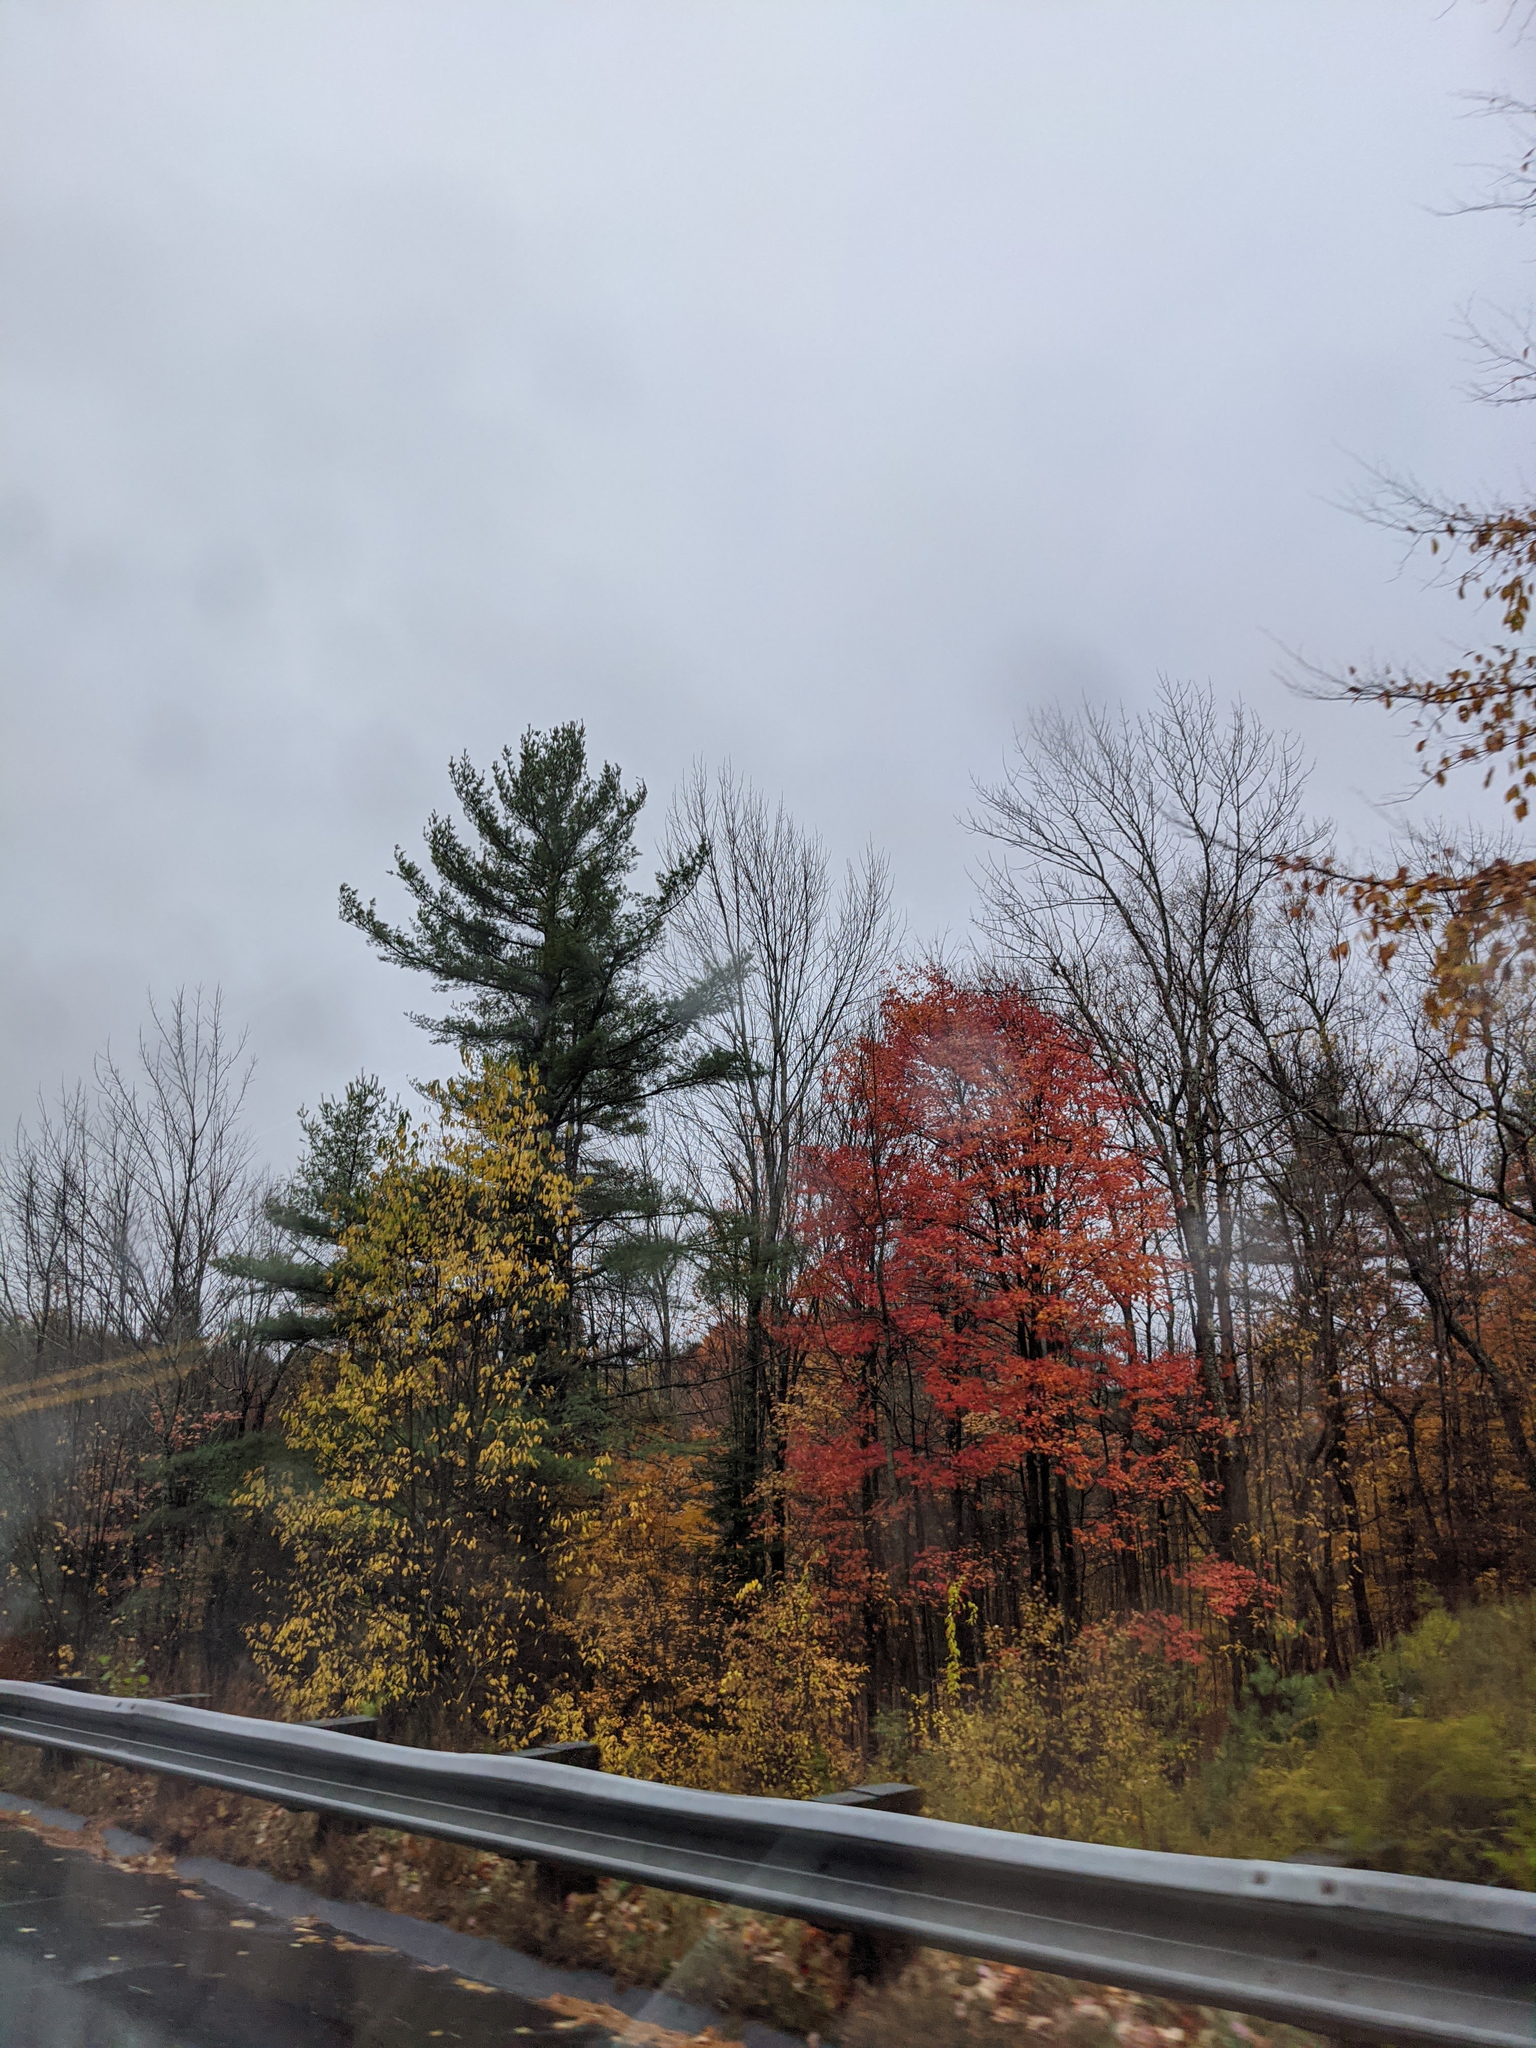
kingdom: Plantae
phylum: Tracheophyta
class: Pinopsida
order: Pinales
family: Pinaceae
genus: Pinus
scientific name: Pinus strobus
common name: Weymouth pine
